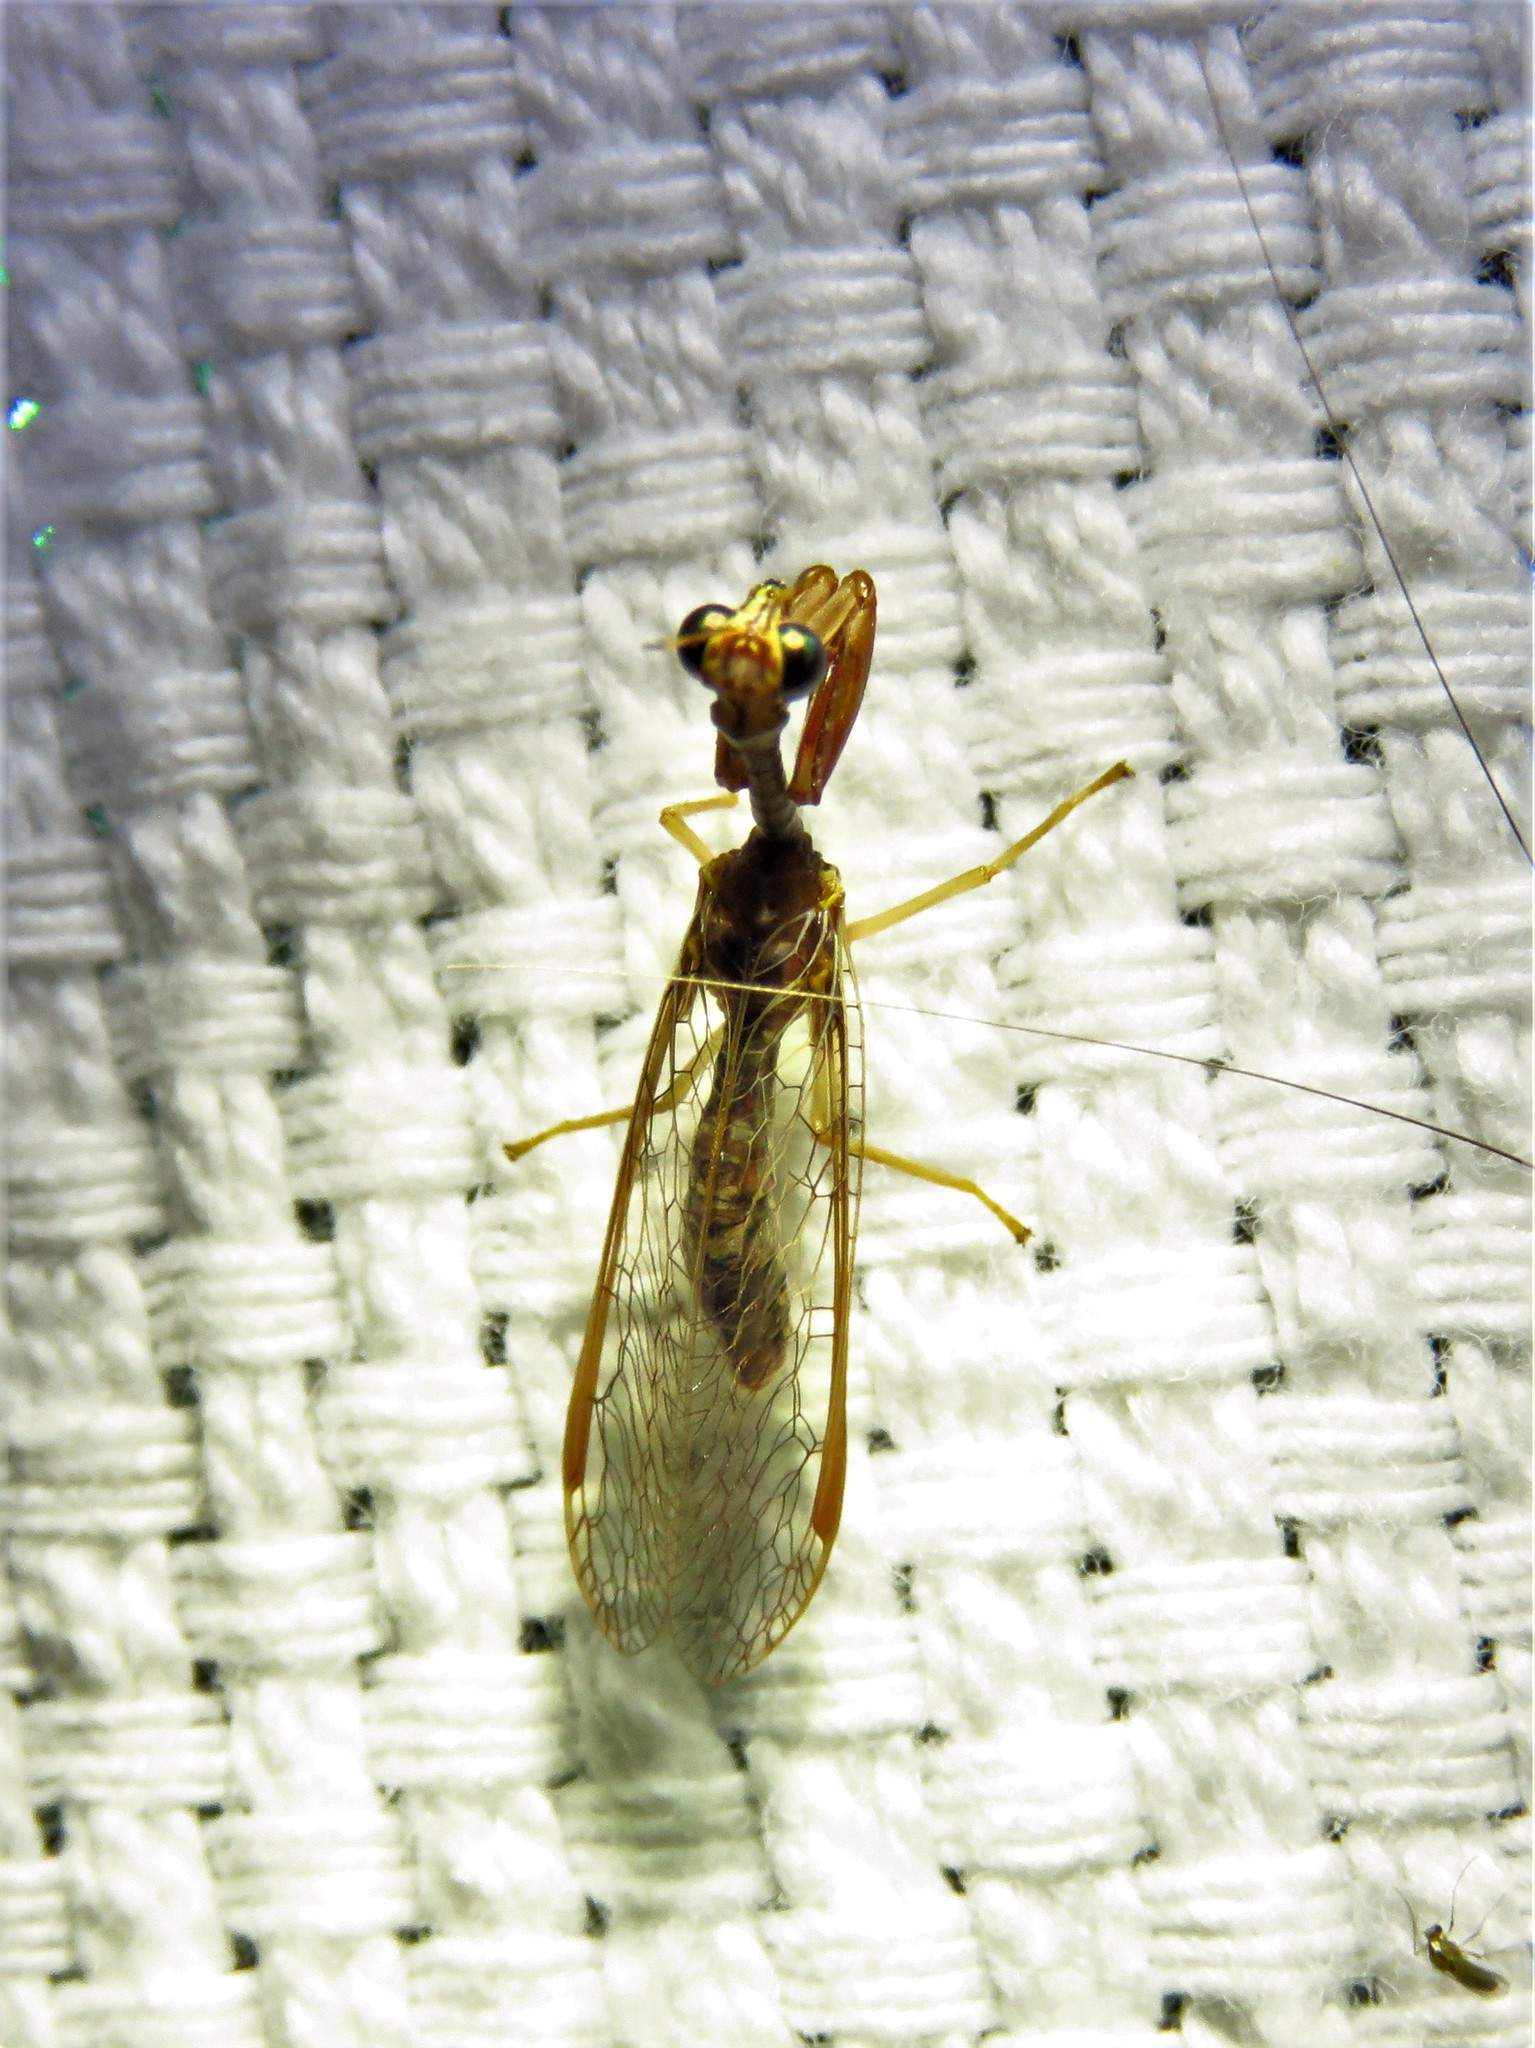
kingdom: Animalia
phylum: Arthropoda
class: Insecta
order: Neuroptera
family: Mantispidae
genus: Dicromantispa
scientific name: Dicromantispa sayi
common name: Say's mantidfly
